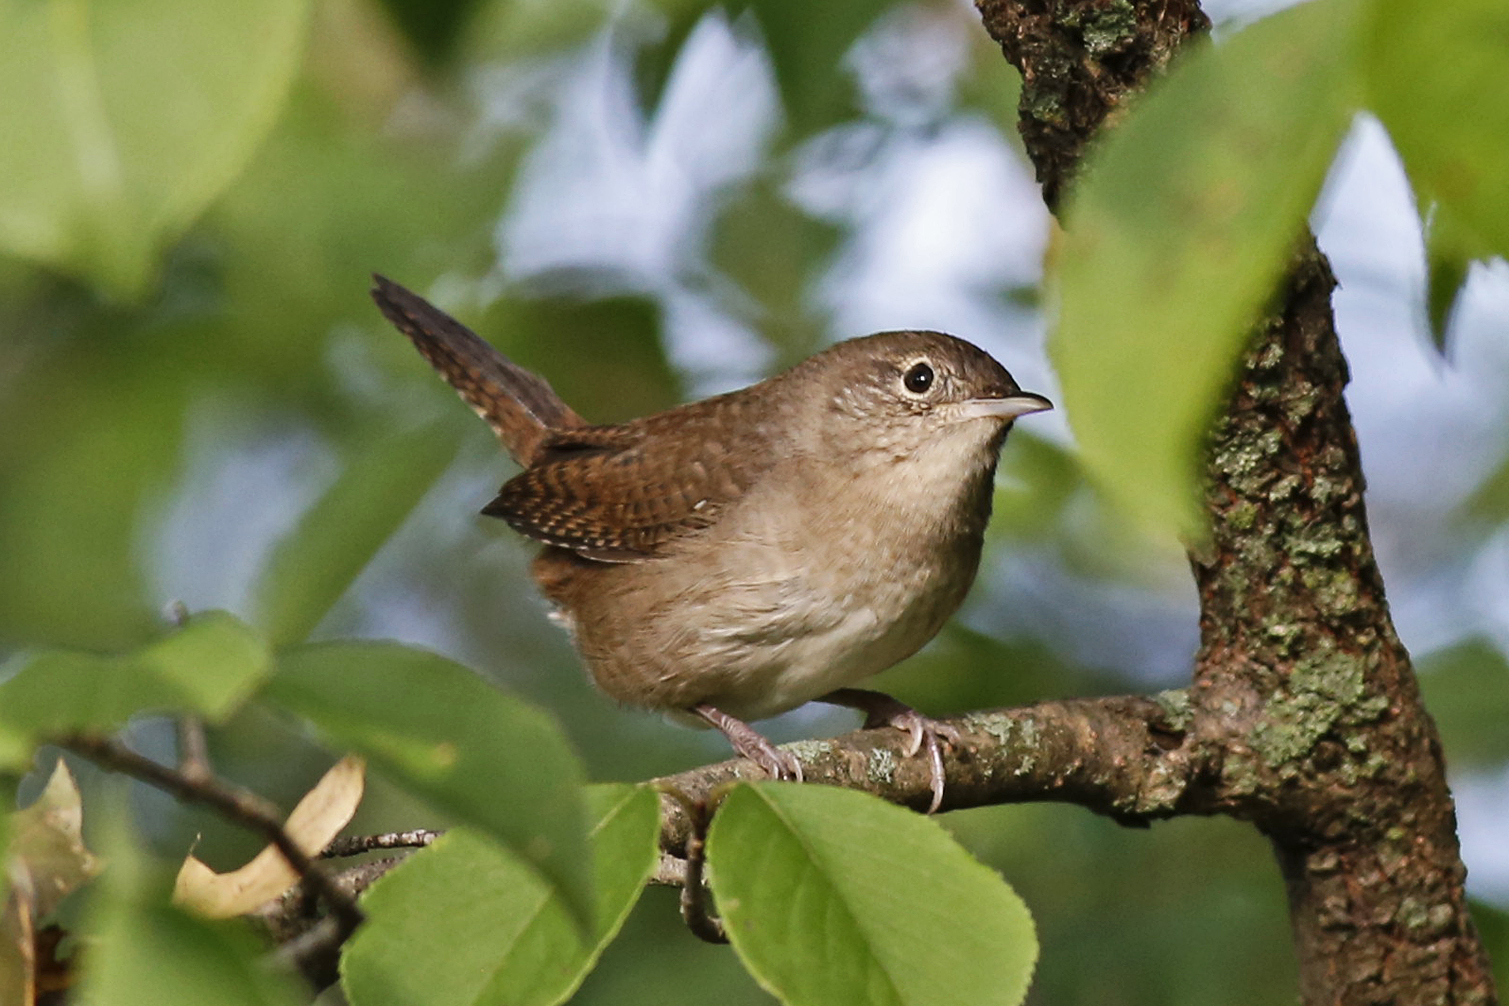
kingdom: Animalia
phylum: Chordata
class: Aves
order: Passeriformes
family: Troglodytidae
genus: Troglodytes
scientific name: Troglodytes aedon
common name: House wren
